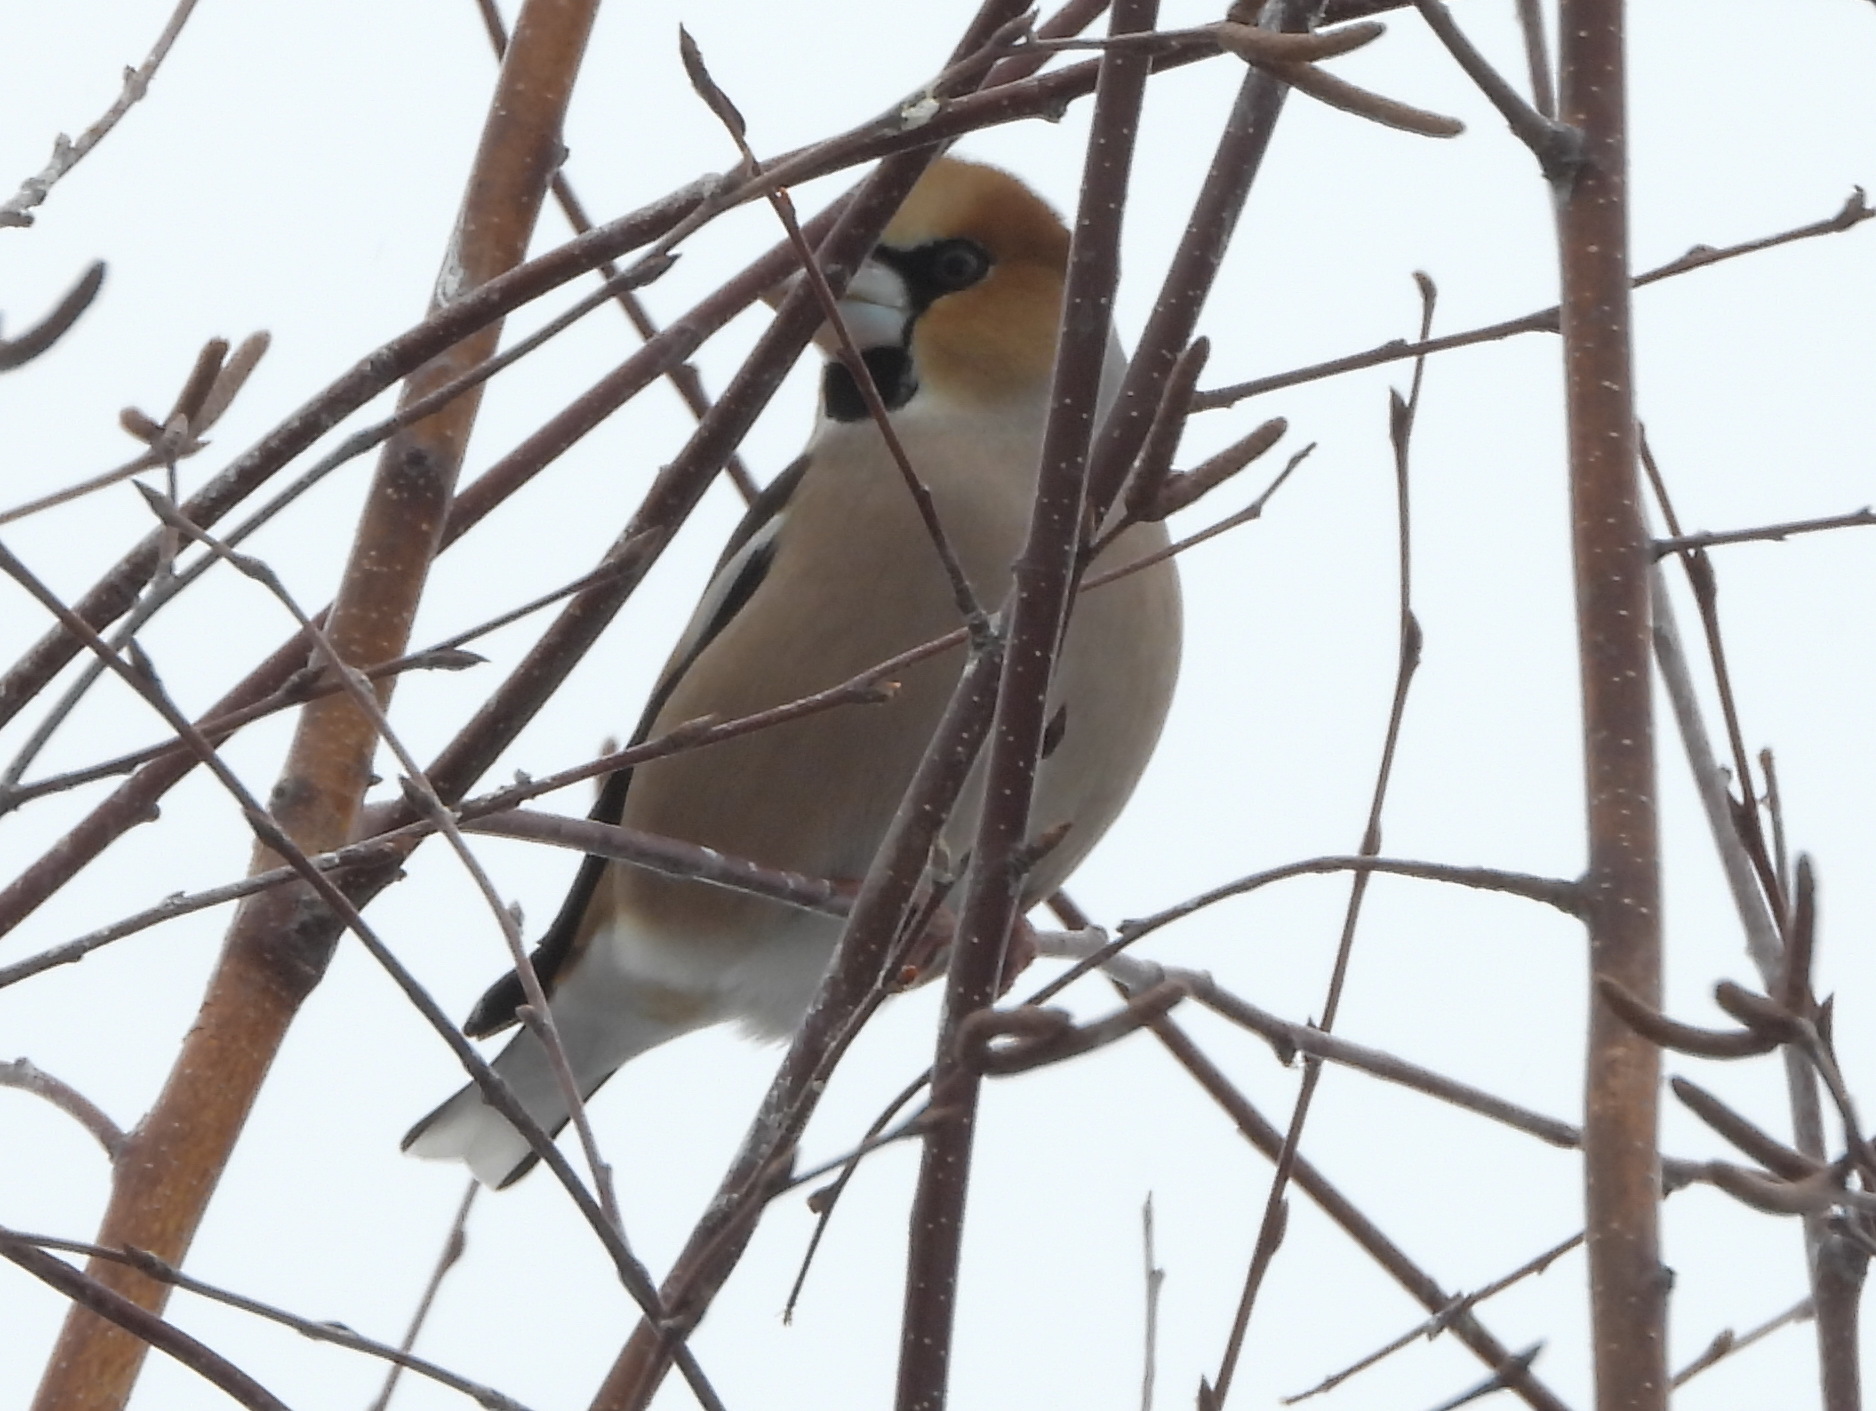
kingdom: Animalia
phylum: Chordata
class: Aves
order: Passeriformes
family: Fringillidae
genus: Coccothraustes
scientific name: Coccothraustes coccothraustes
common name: Hawfinch
